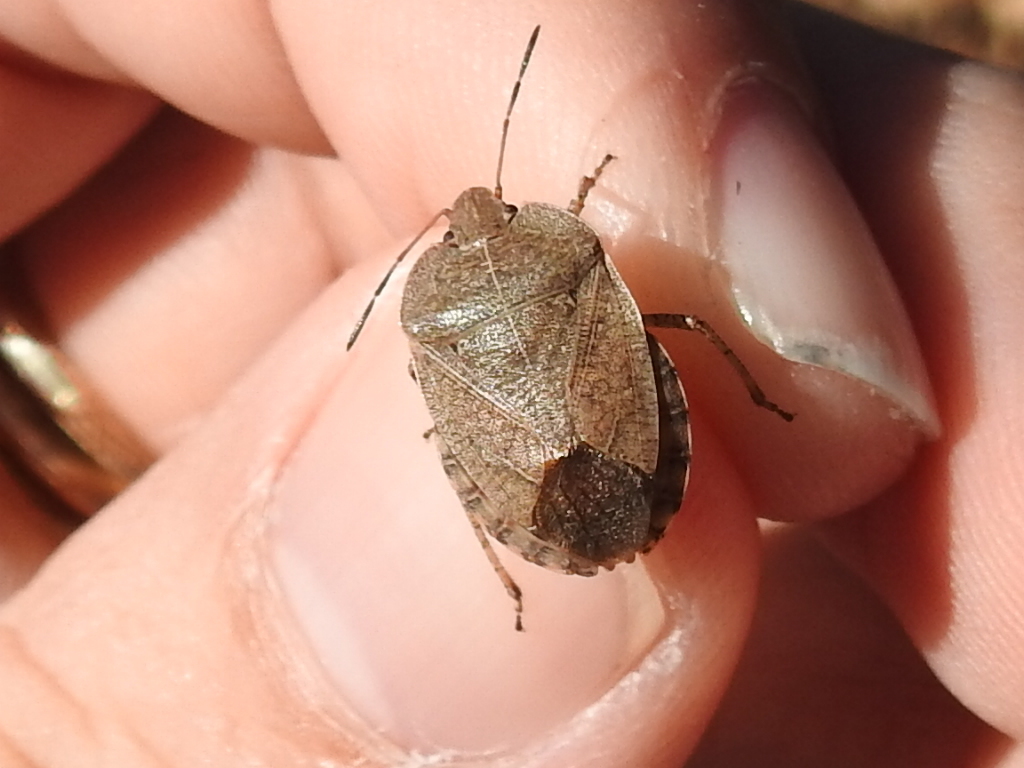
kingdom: Animalia
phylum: Arthropoda
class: Insecta
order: Hemiptera
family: Pentatomidae
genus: Menecles
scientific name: Menecles insertus
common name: Elf shoe stink bug
